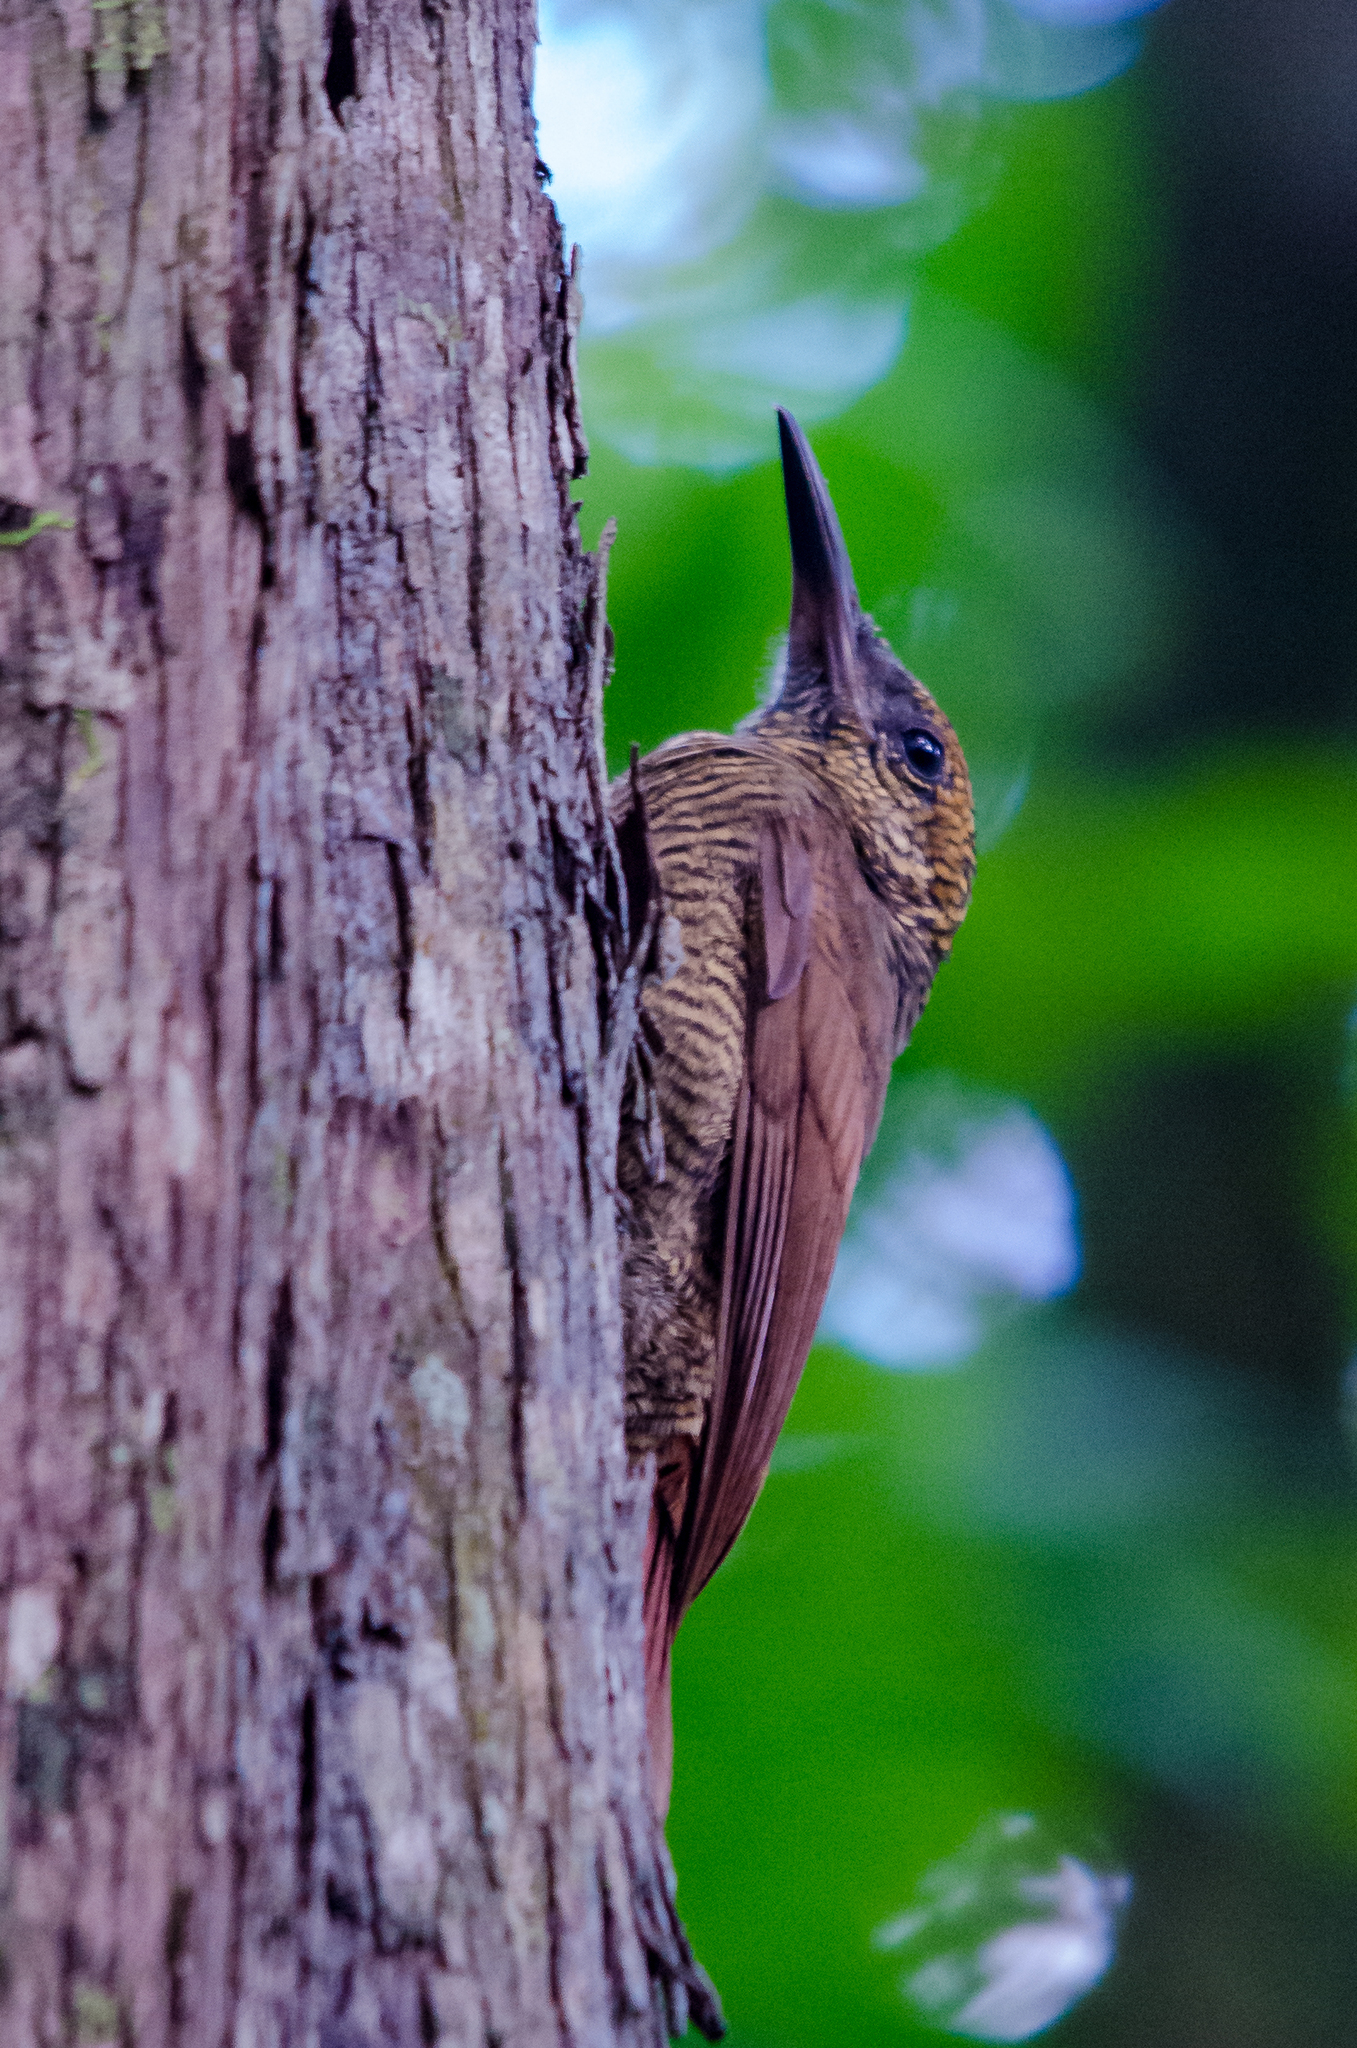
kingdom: Animalia
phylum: Chordata
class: Aves
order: Passeriformes
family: Furnariidae
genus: Dendrocolaptes
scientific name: Dendrocolaptes sanctithomae
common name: Northern barred-woodcreeper
